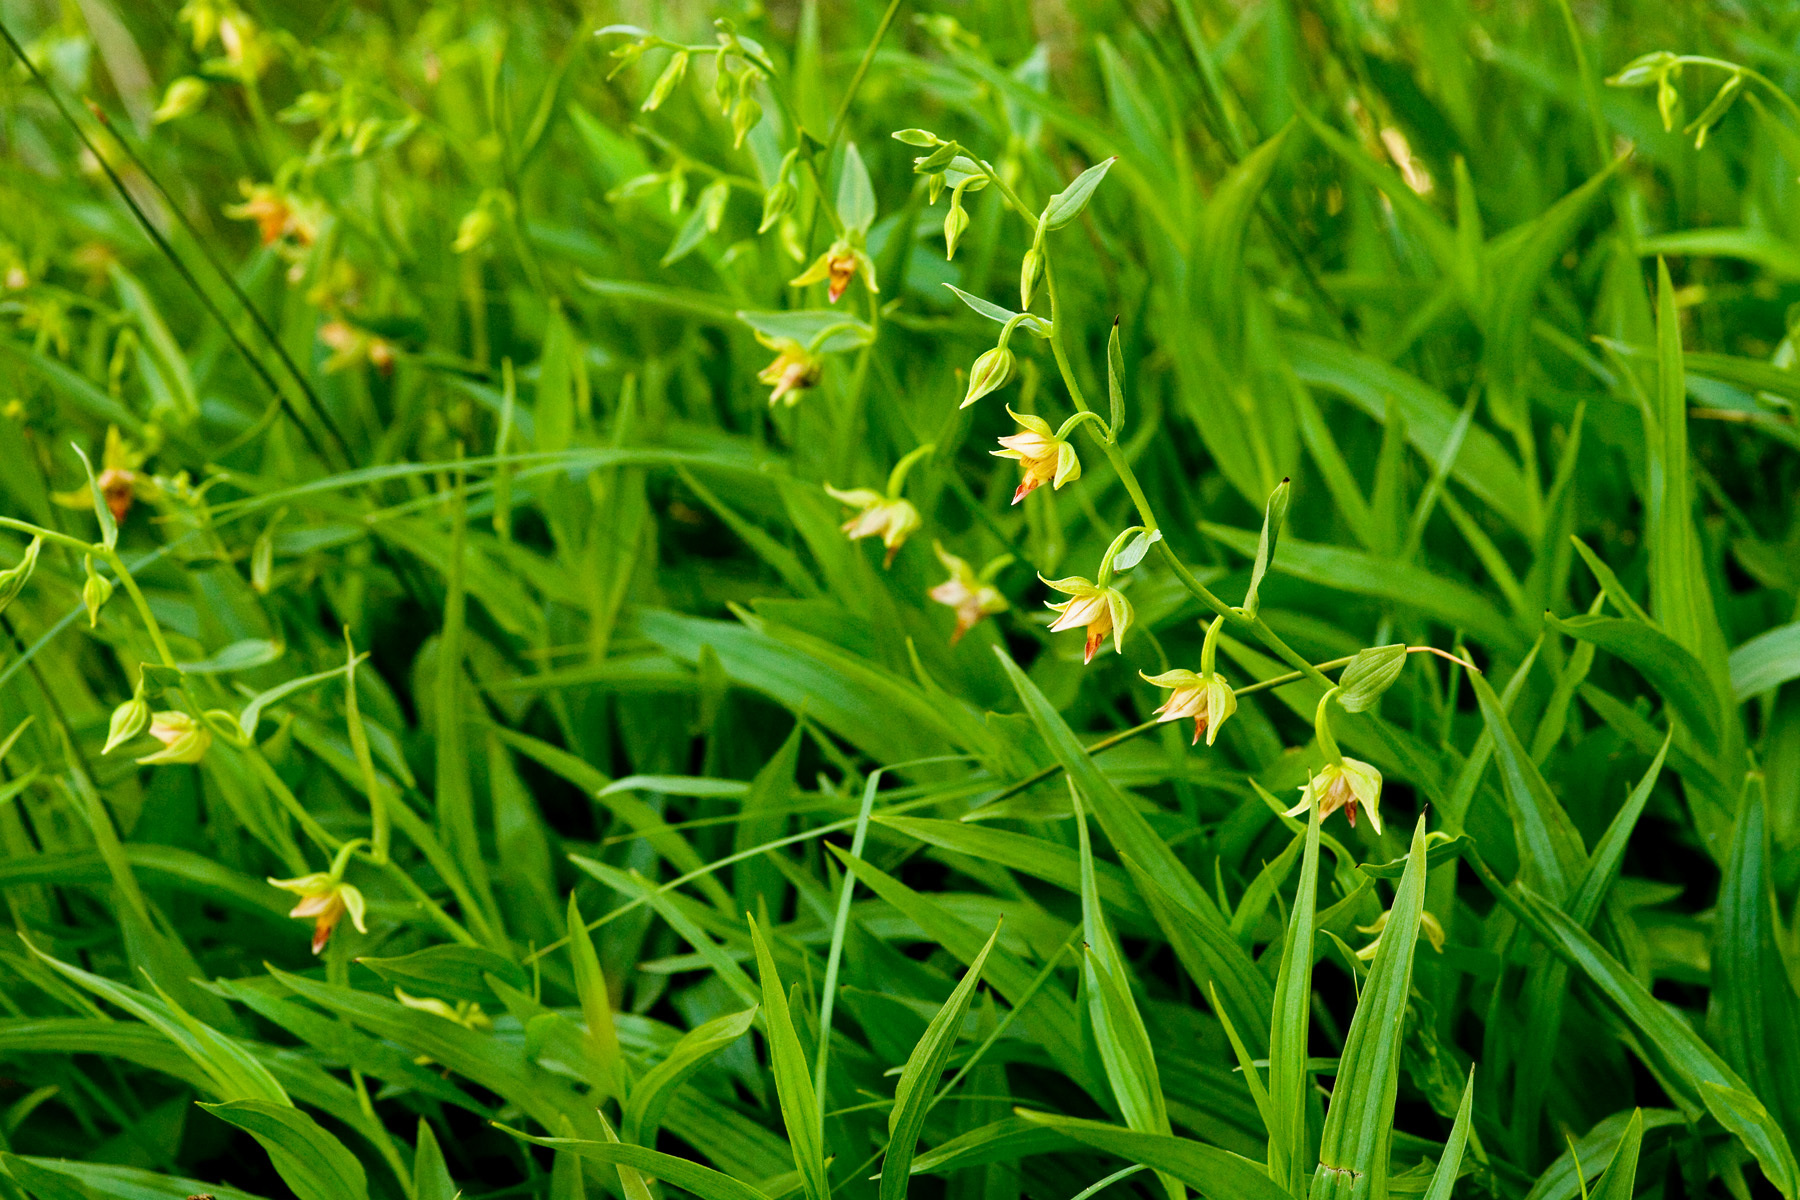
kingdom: Plantae
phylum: Tracheophyta
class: Liliopsida
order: Asparagales
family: Orchidaceae
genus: Epipactis
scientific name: Epipactis gigantea
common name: Chatterbox
